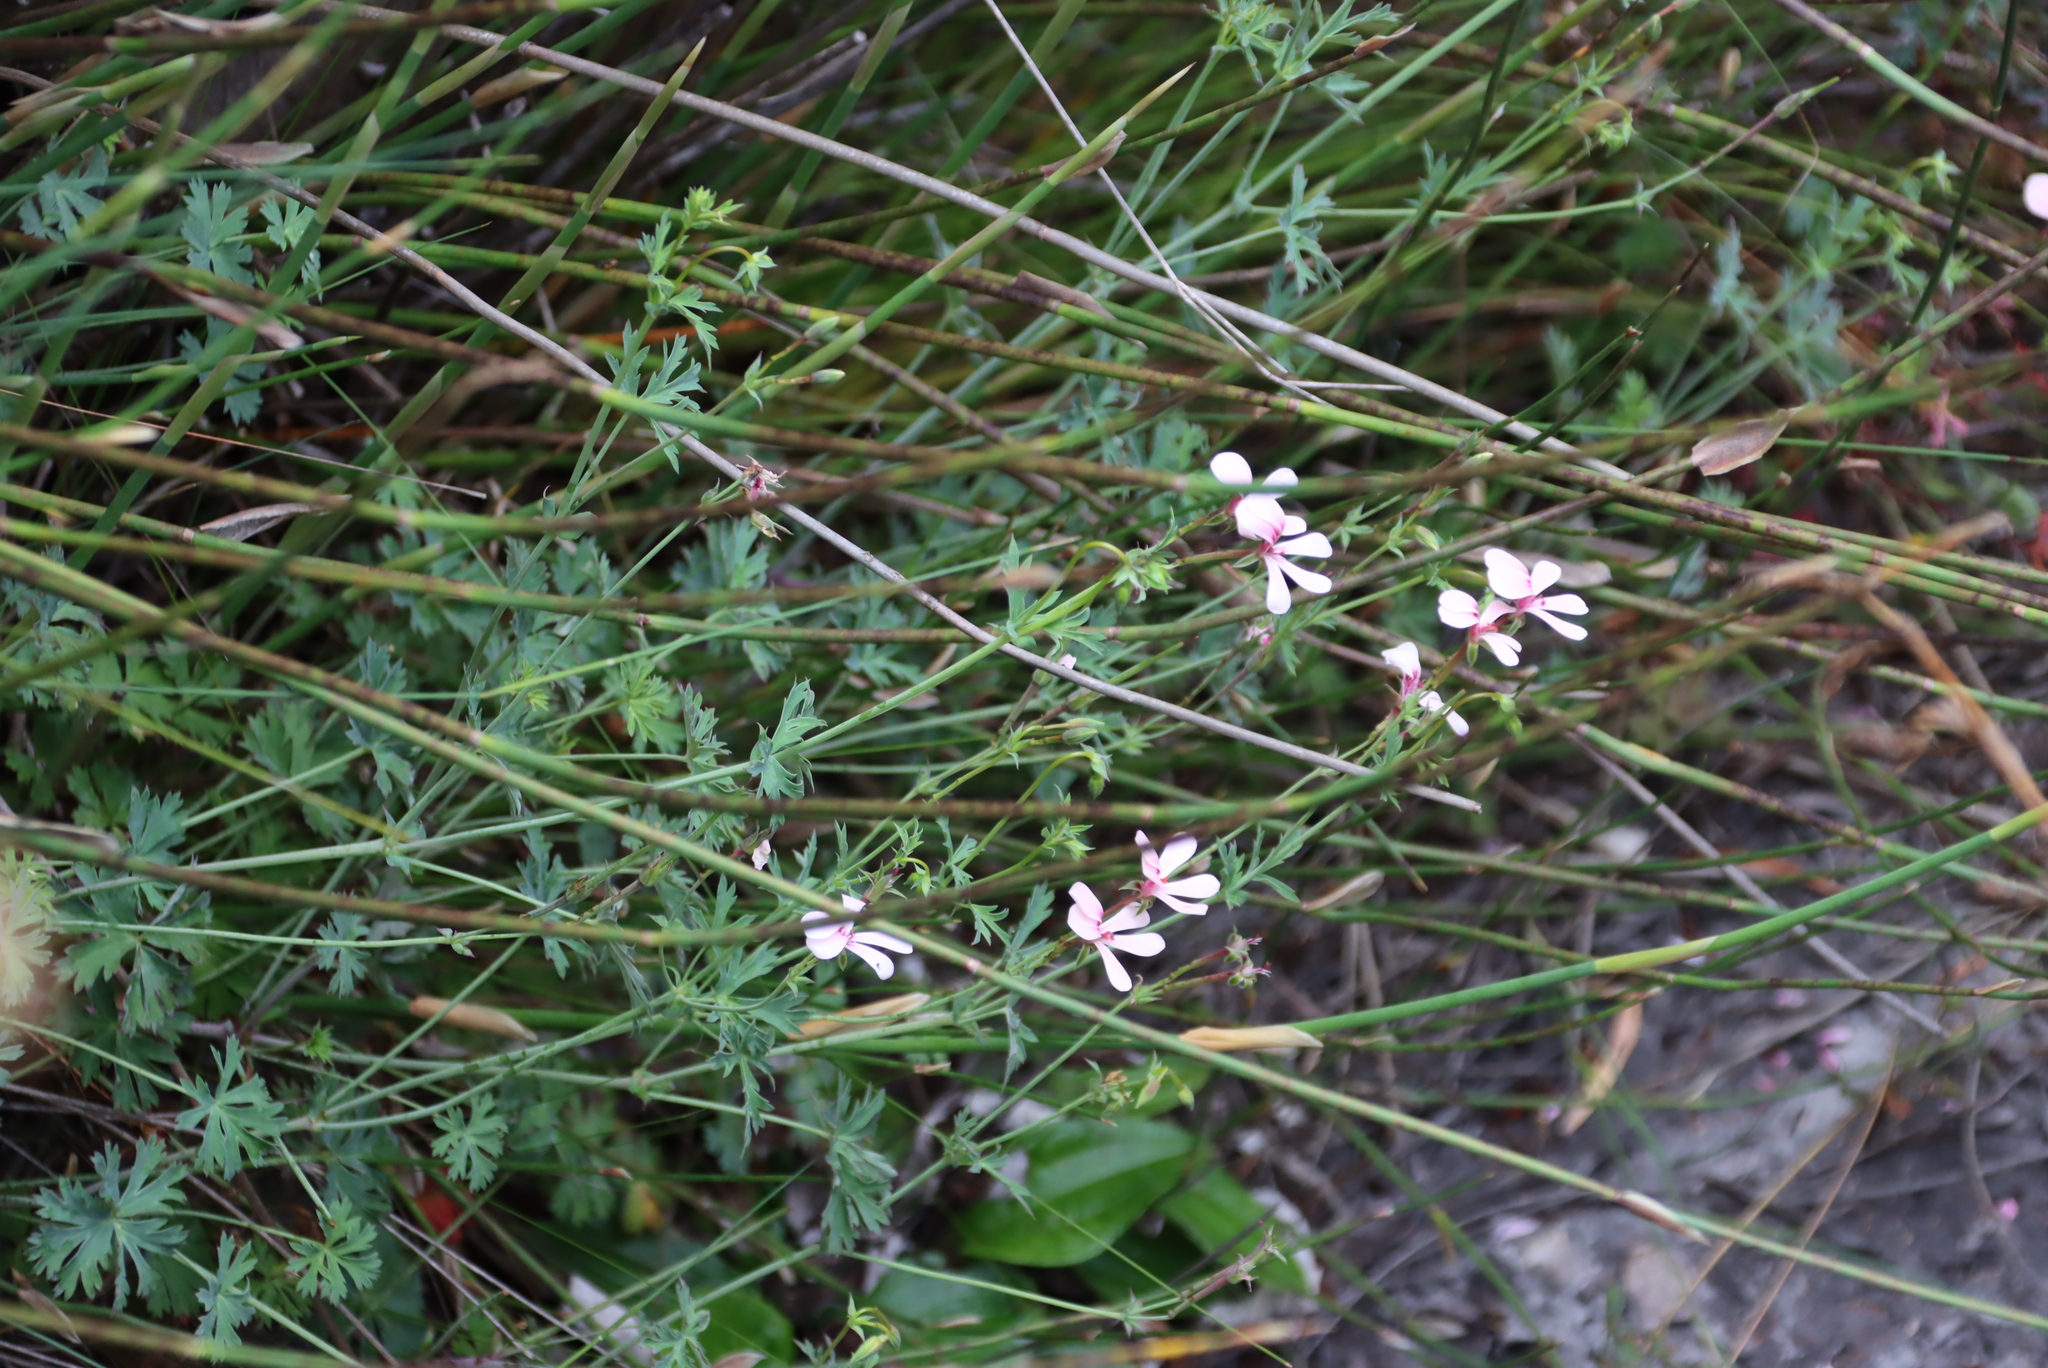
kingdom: Plantae
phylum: Tracheophyta
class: Magnoliopsida
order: Geraniales
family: Geraniaceae
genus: Pelargonium
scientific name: Pelargonium patulum
